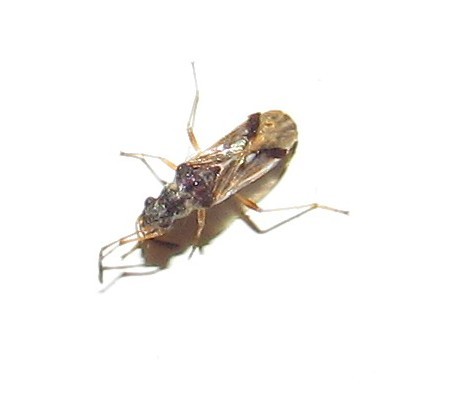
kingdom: Animalia
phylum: Arthropoda
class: Insecta
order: Hemiptera
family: Rhyparochromidae
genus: Pseudopachybrachius
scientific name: Pseudopachybrachius vinctus
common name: Dirt-colored seed bug
